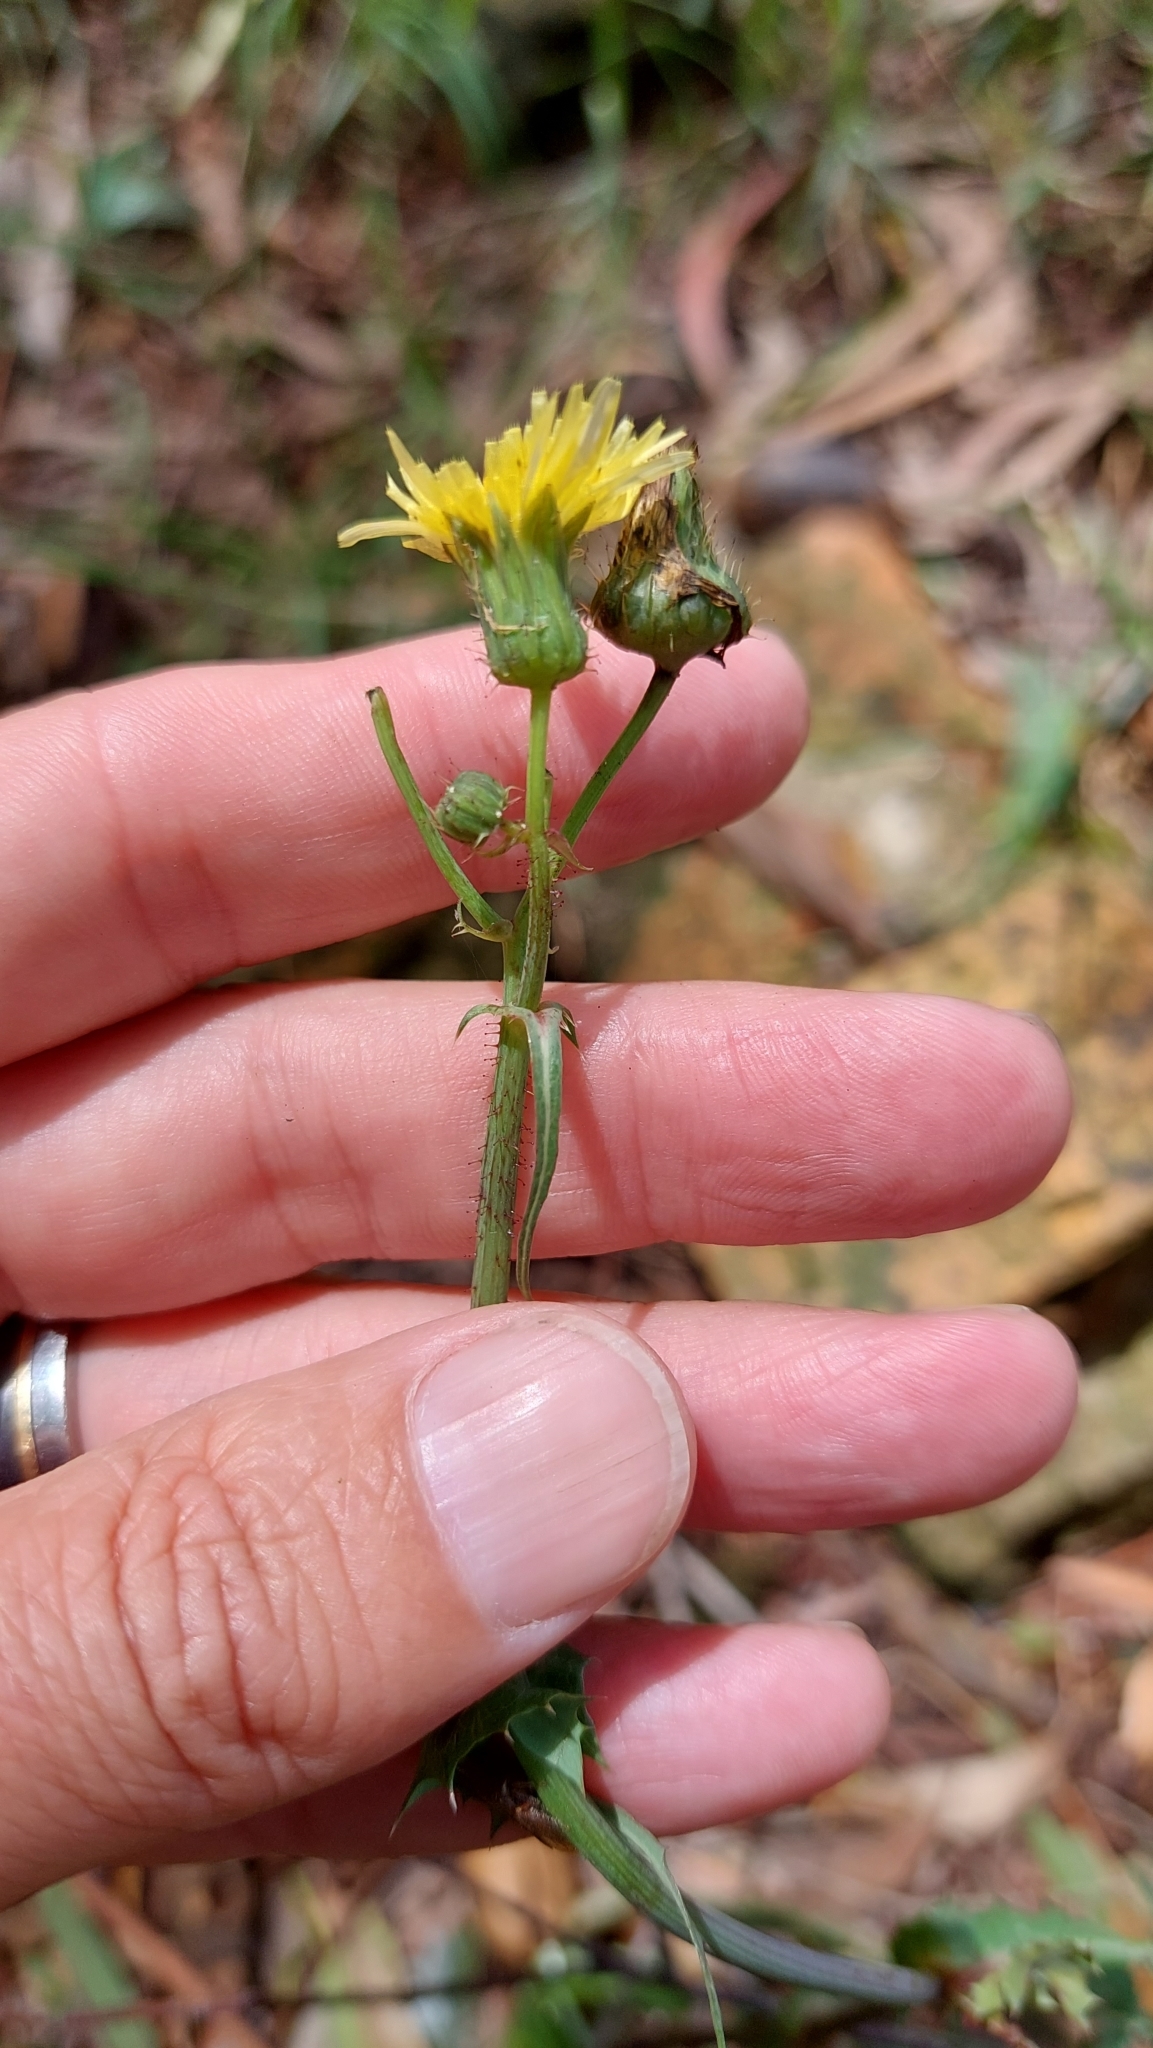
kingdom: Plantae
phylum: Tracheophyta
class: Magnoliopsida
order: Asterales
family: Asteraceae
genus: Sonchus
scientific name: Sonchus oleraceus
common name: Common sowthistle
